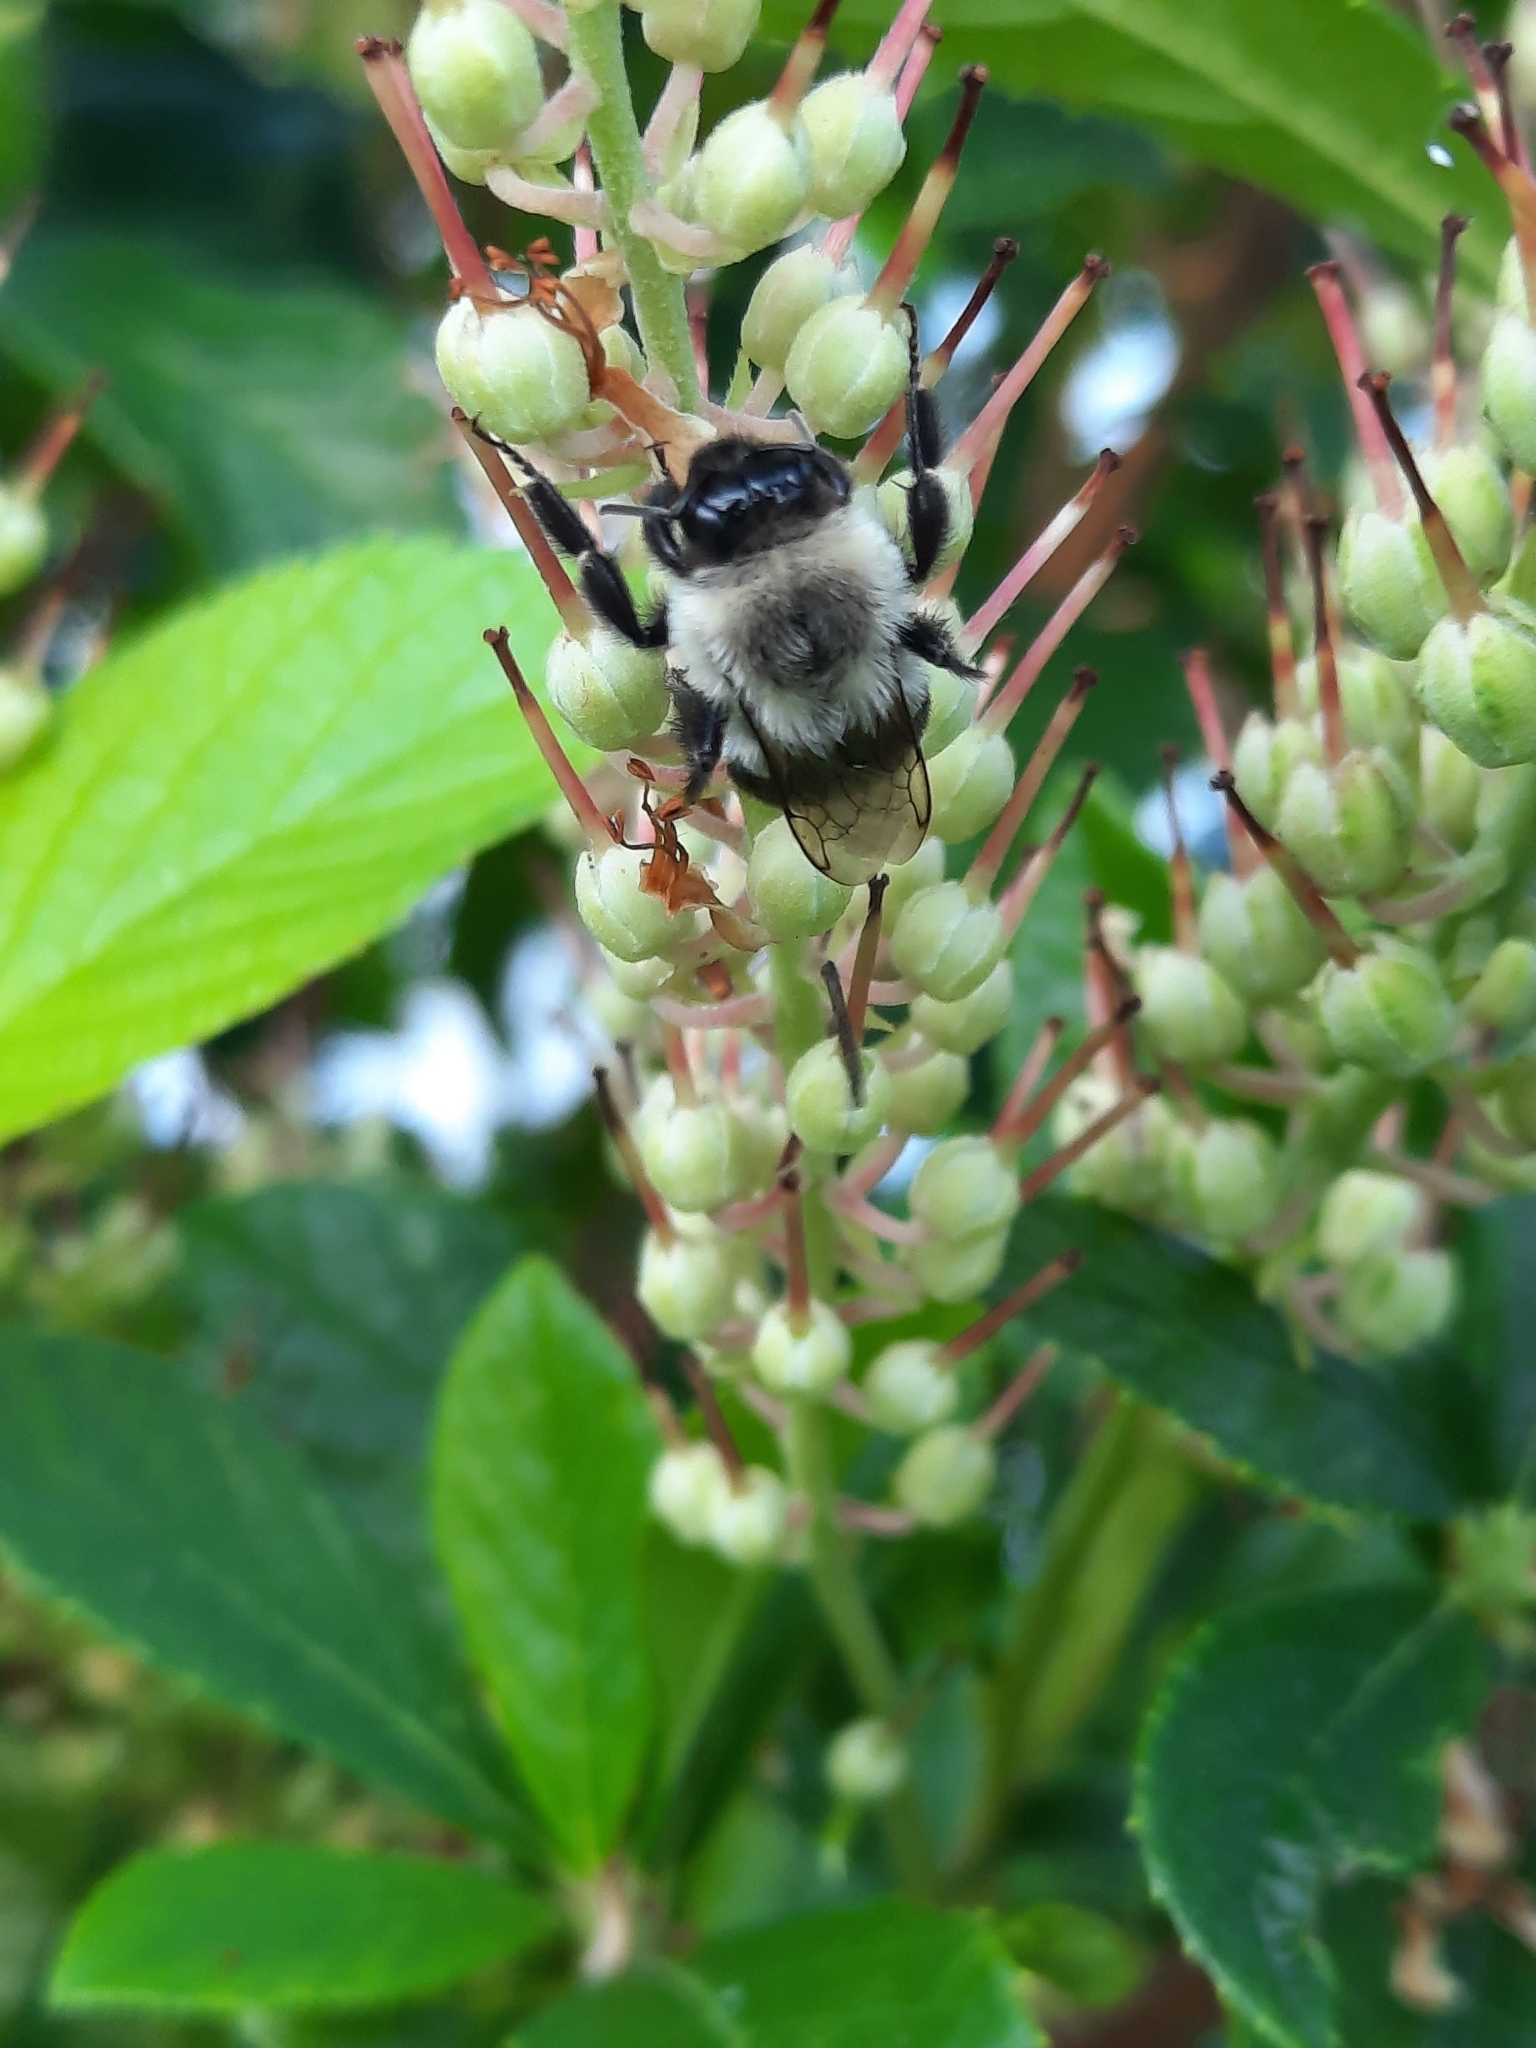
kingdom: Animalia
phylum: Arthropoda
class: Insecta
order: Hymenoptera
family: Apidae
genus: Bombus
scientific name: Bombus impatiens
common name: Common eastern bumble bee
